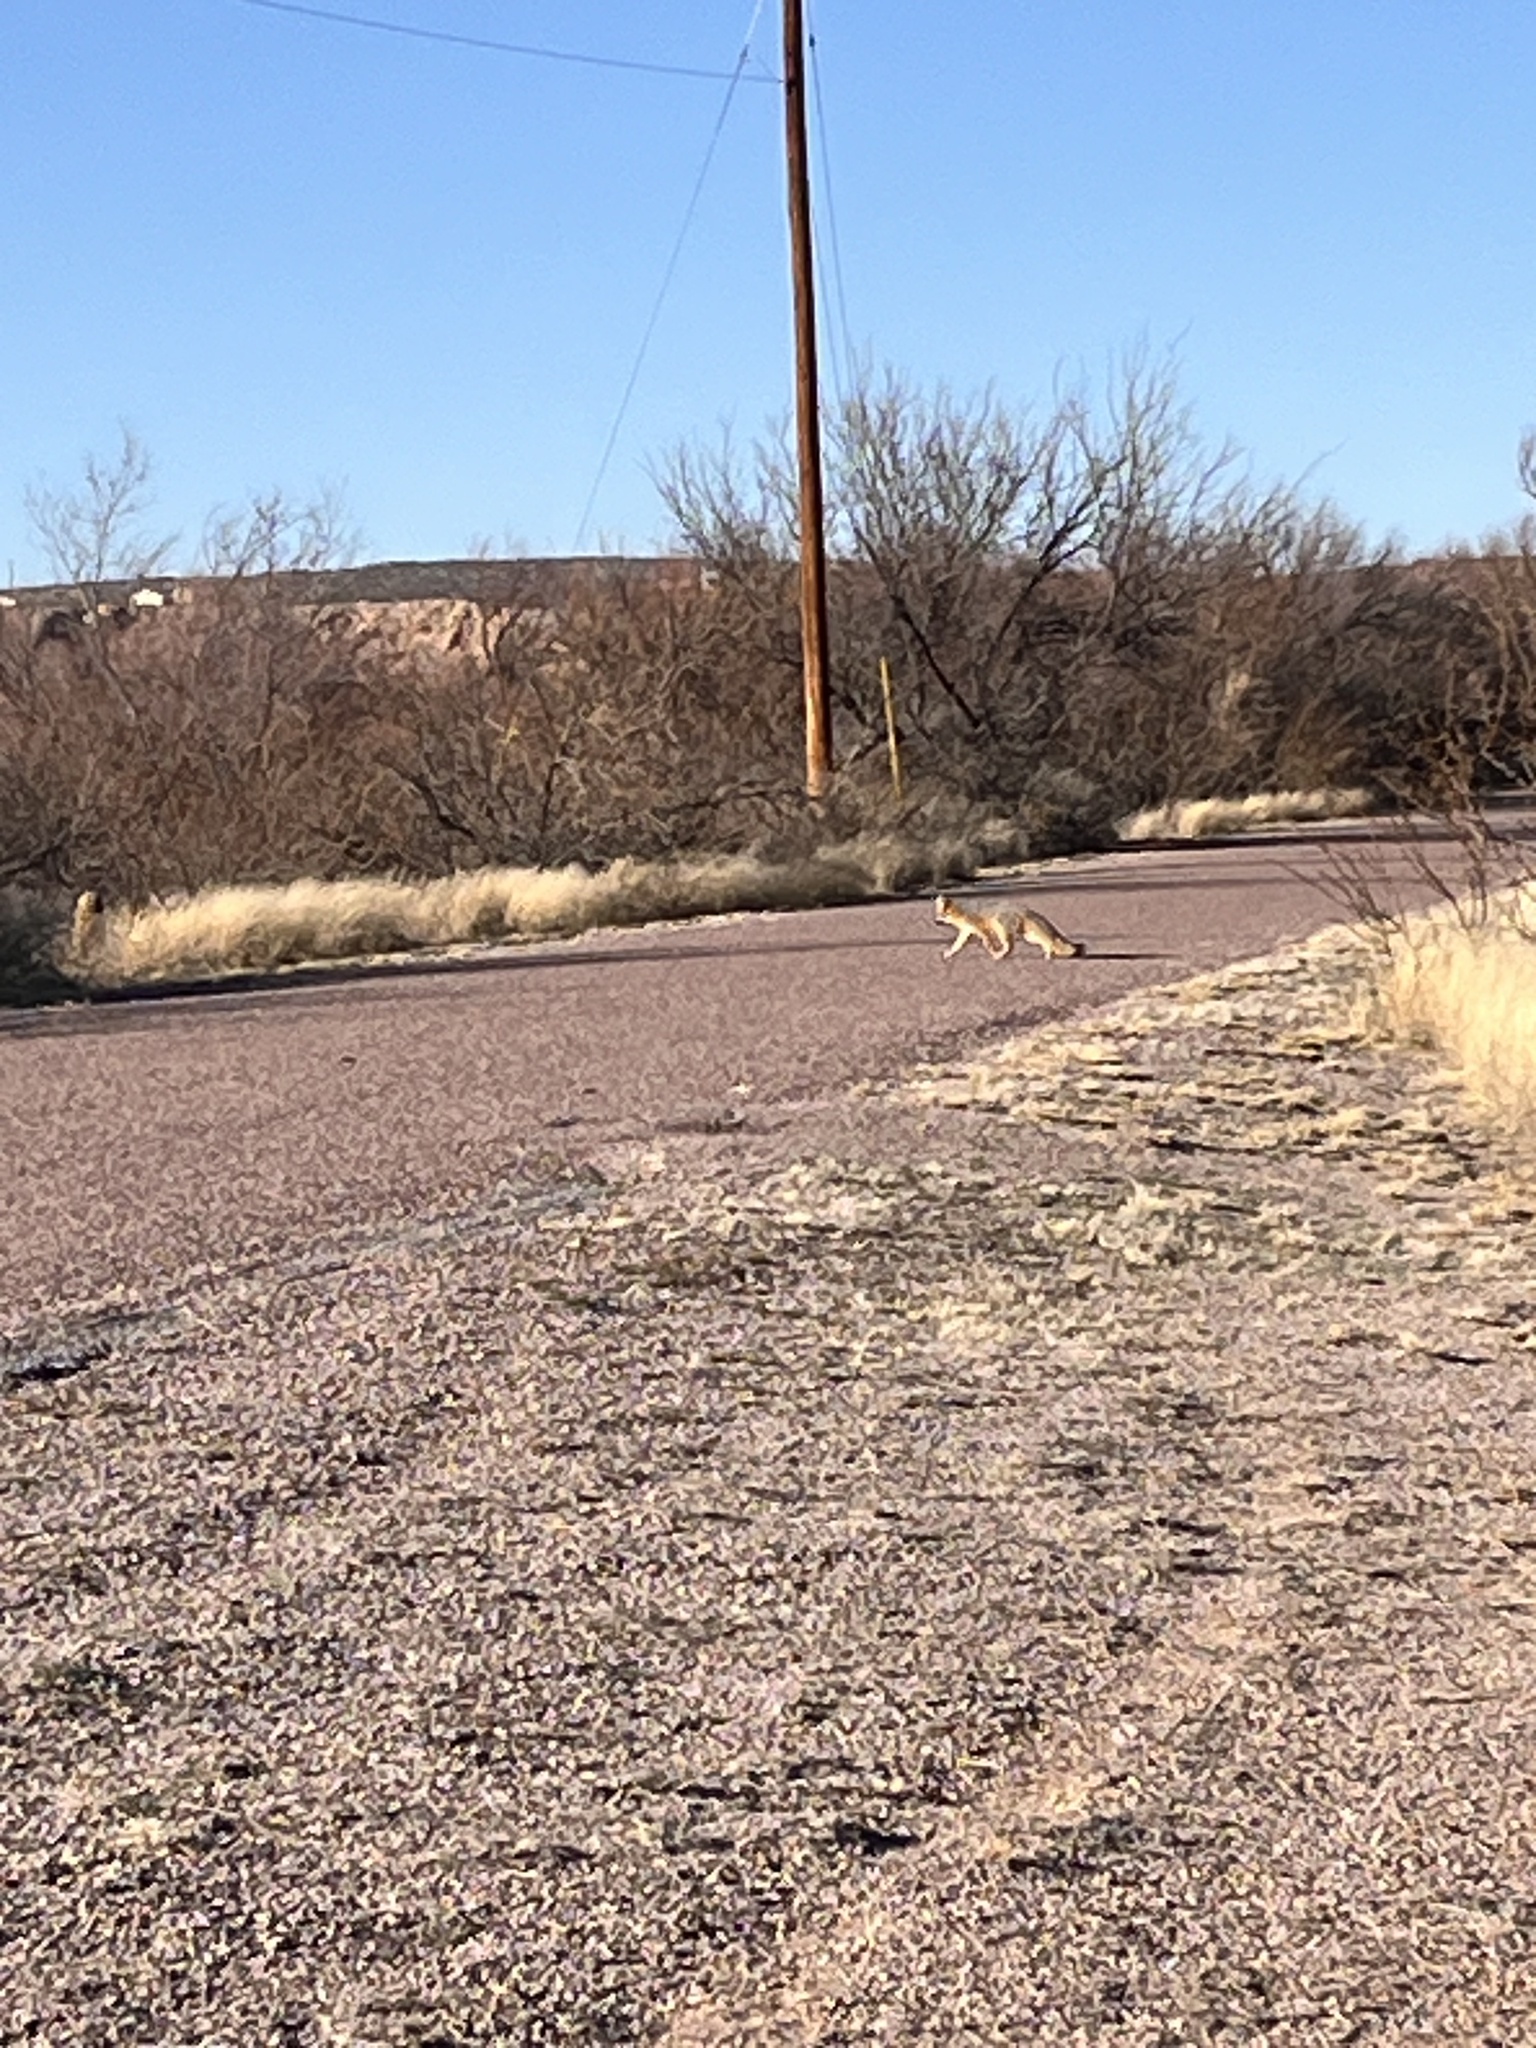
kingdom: Animalia
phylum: Chordata
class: Mammalia
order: Carnivora
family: Canidae
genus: Urocyon
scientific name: Urocyon cinereoargenteus
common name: Gray fox
